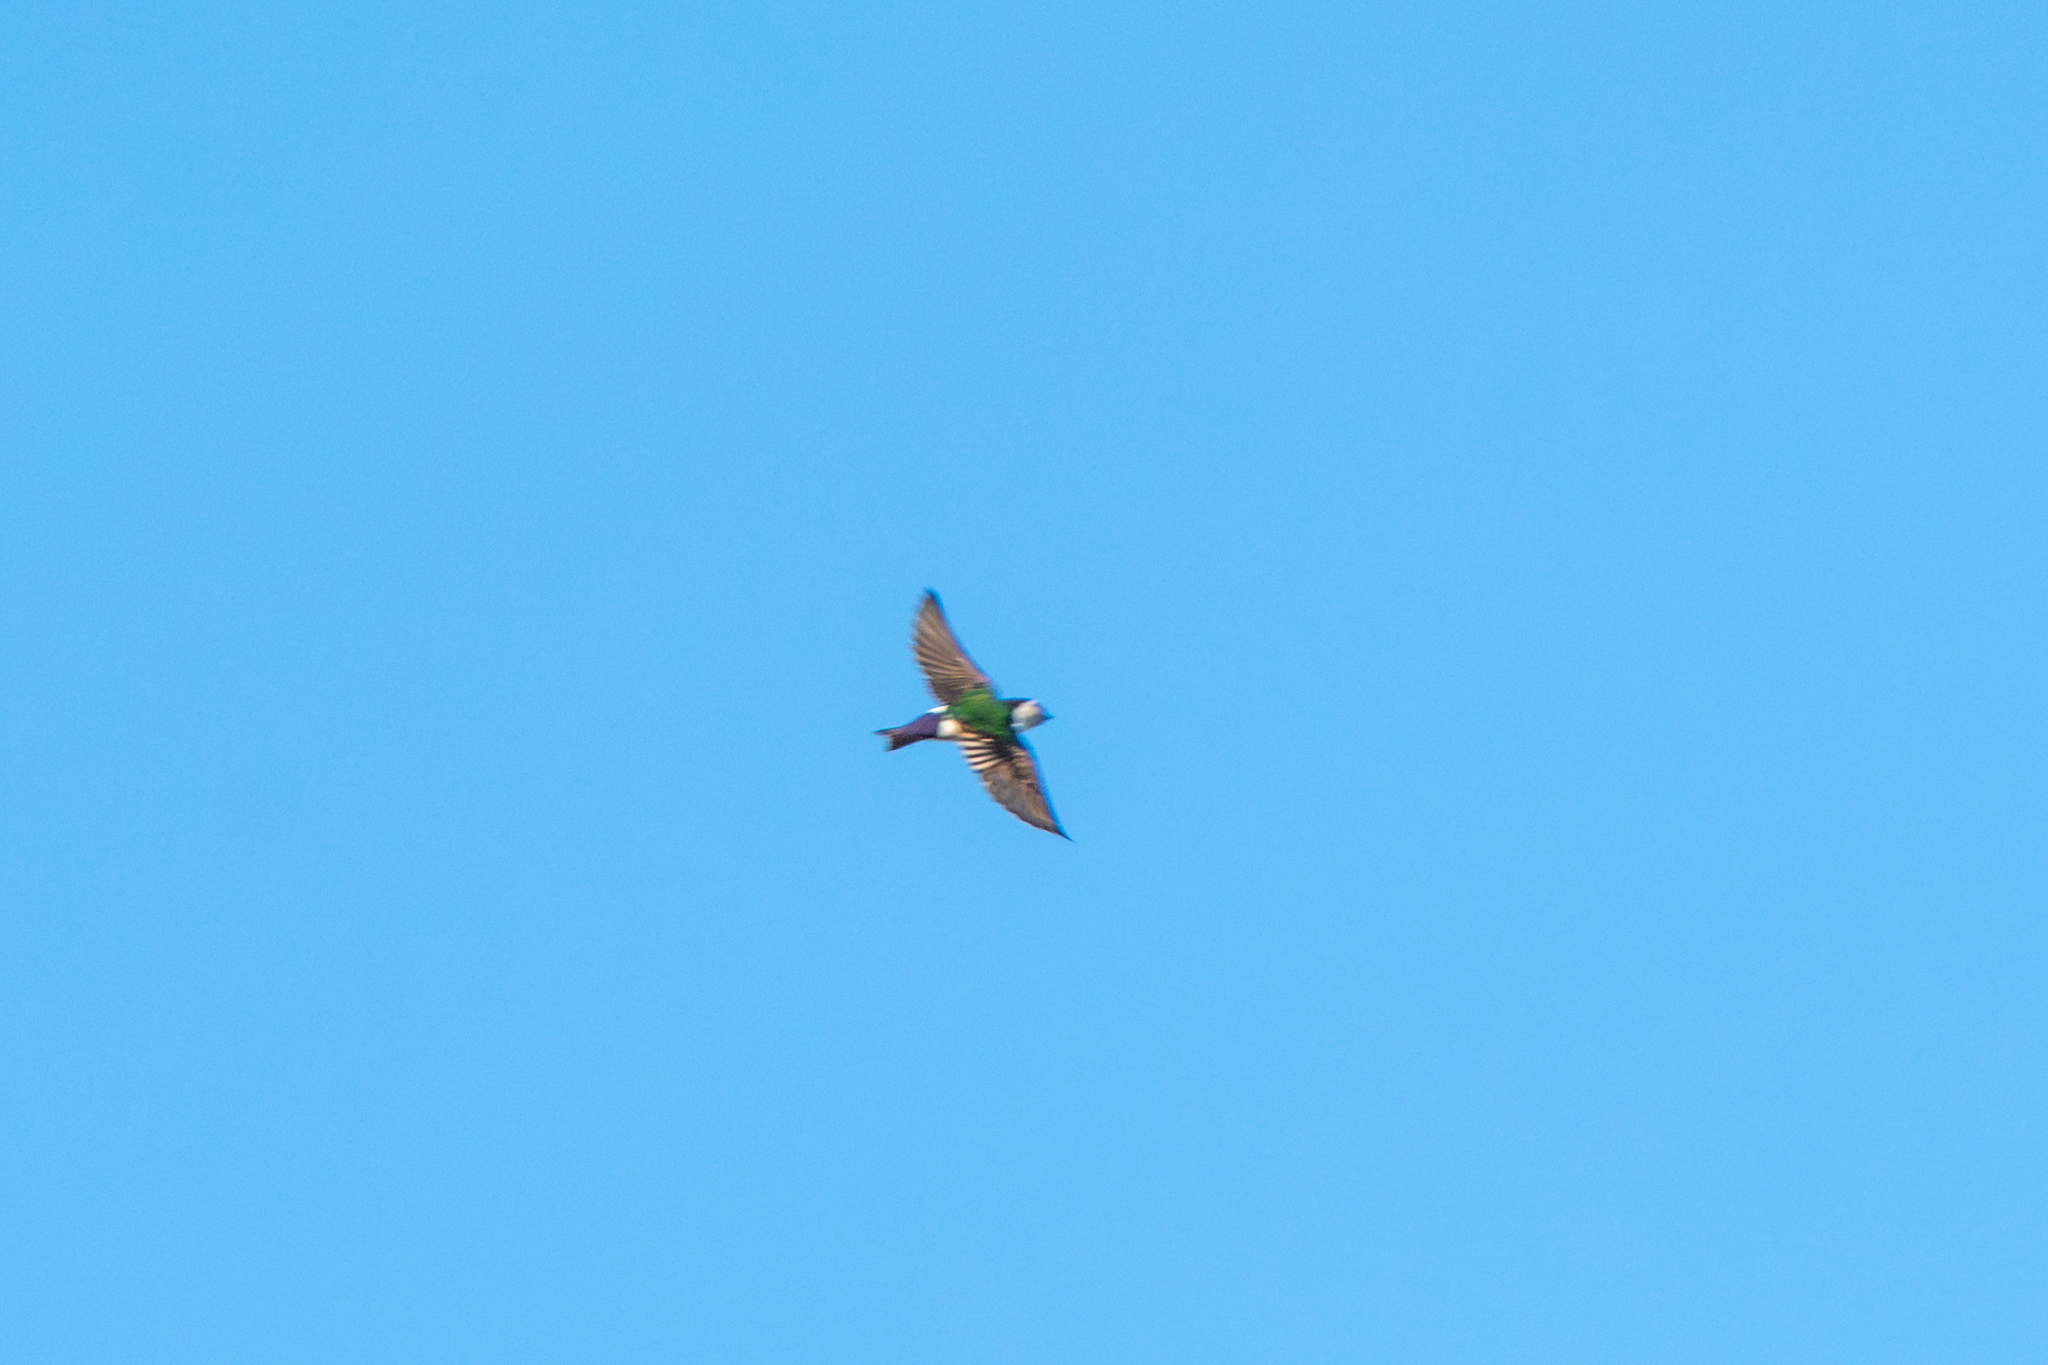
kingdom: Animalia
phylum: Chordata
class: Aves
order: Passeriformes
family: Hirundinidae
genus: Tachycineta
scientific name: Tachycineta thalassina
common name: Violet-green swallow
